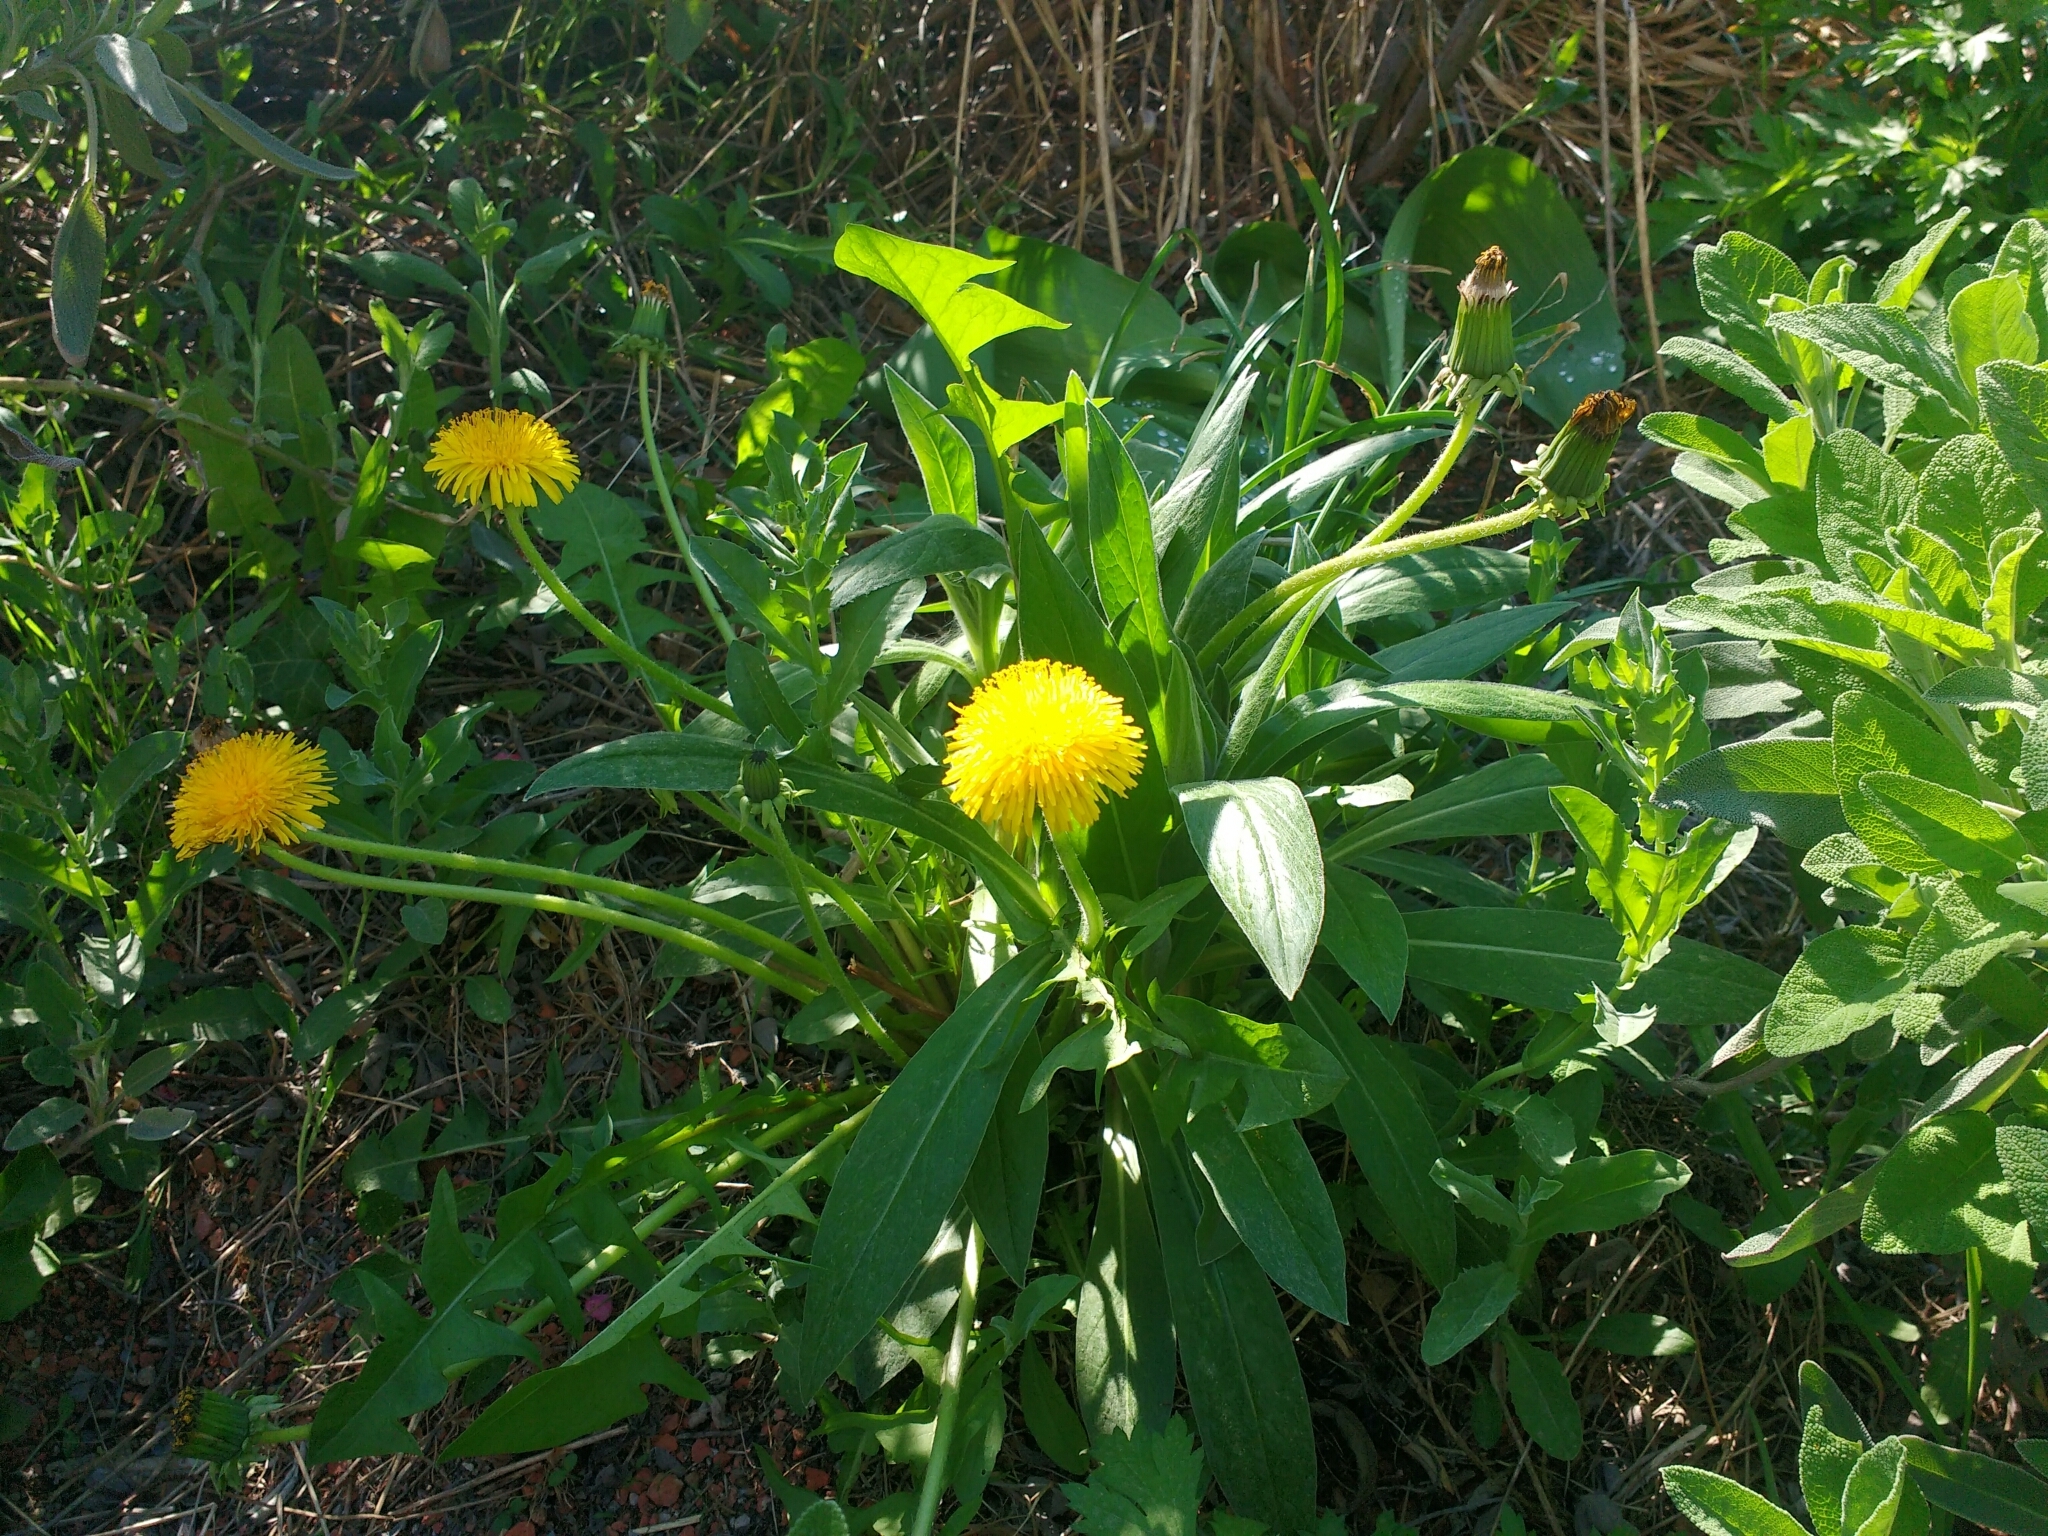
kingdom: Plantae
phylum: Tracheophyta
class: Magnoliopsida
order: Asterales
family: Asteraceae
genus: Taraxacum
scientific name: Taraxacum officinale
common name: Common dandelion
